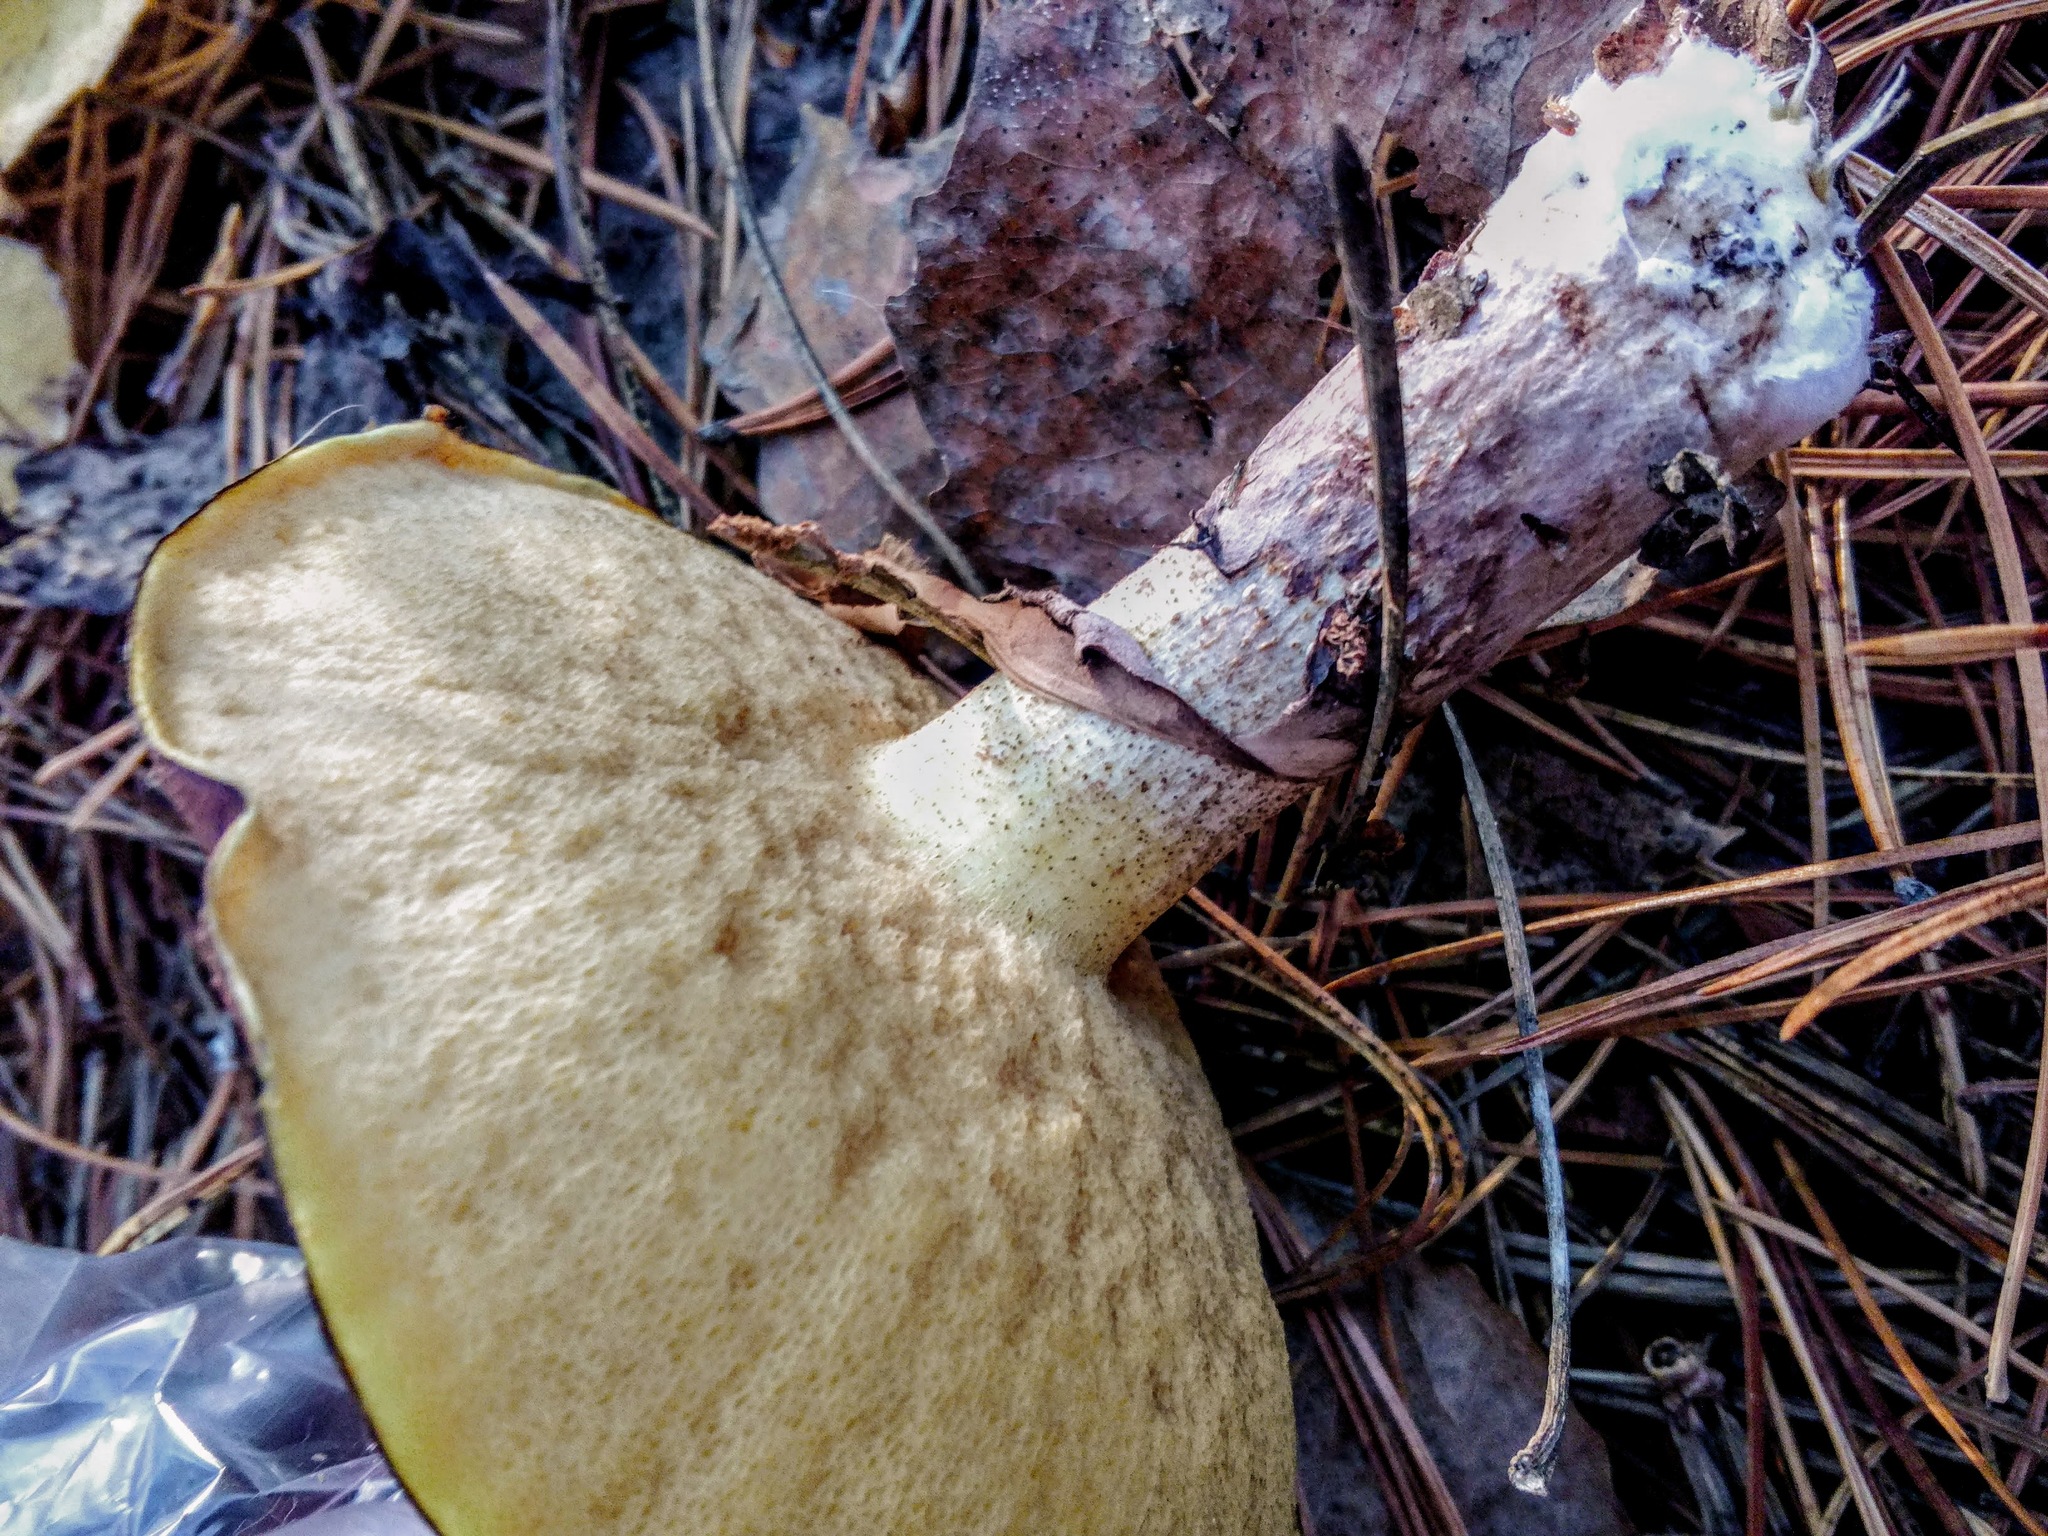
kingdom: Fungi
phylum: Basidiomycota
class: Agaricomycetes
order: Boletales
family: Suillaceae
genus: Suillus
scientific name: Suillus placidus
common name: Slippery white bolete
